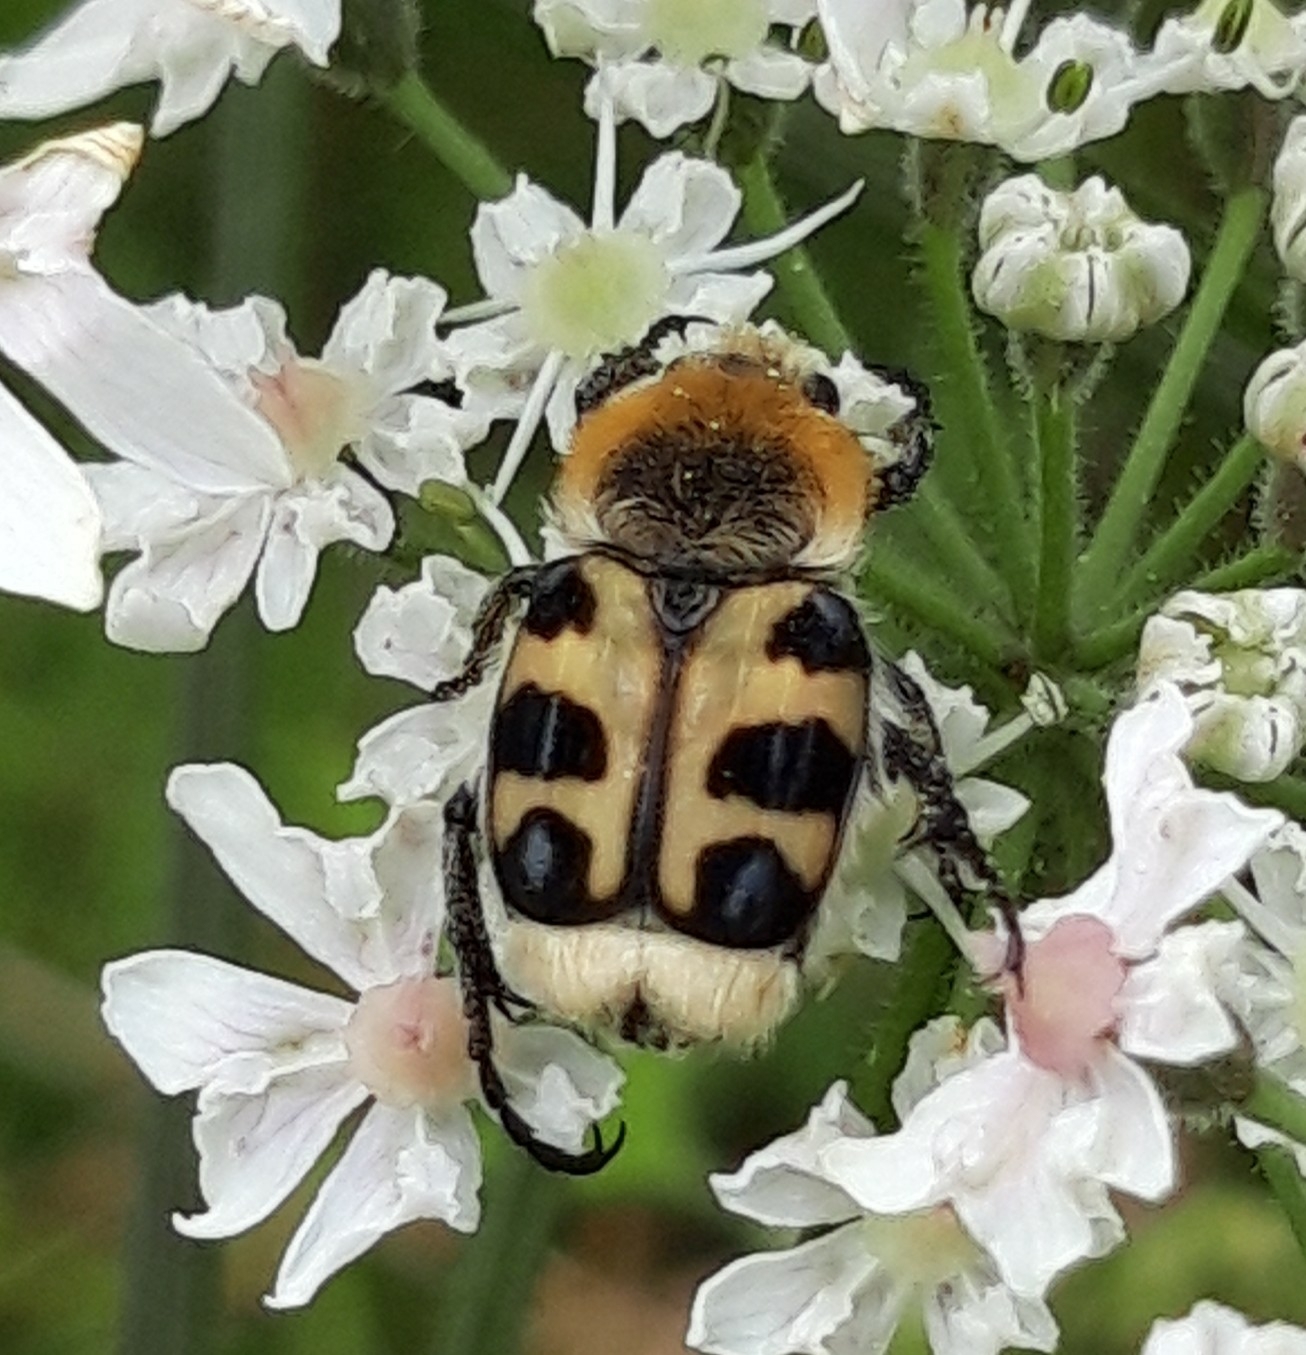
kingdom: Animalia
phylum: Arthropoda
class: Insecta
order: Coleoptera
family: Scarabaeidae
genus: Trichius
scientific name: Trichius gallicus
